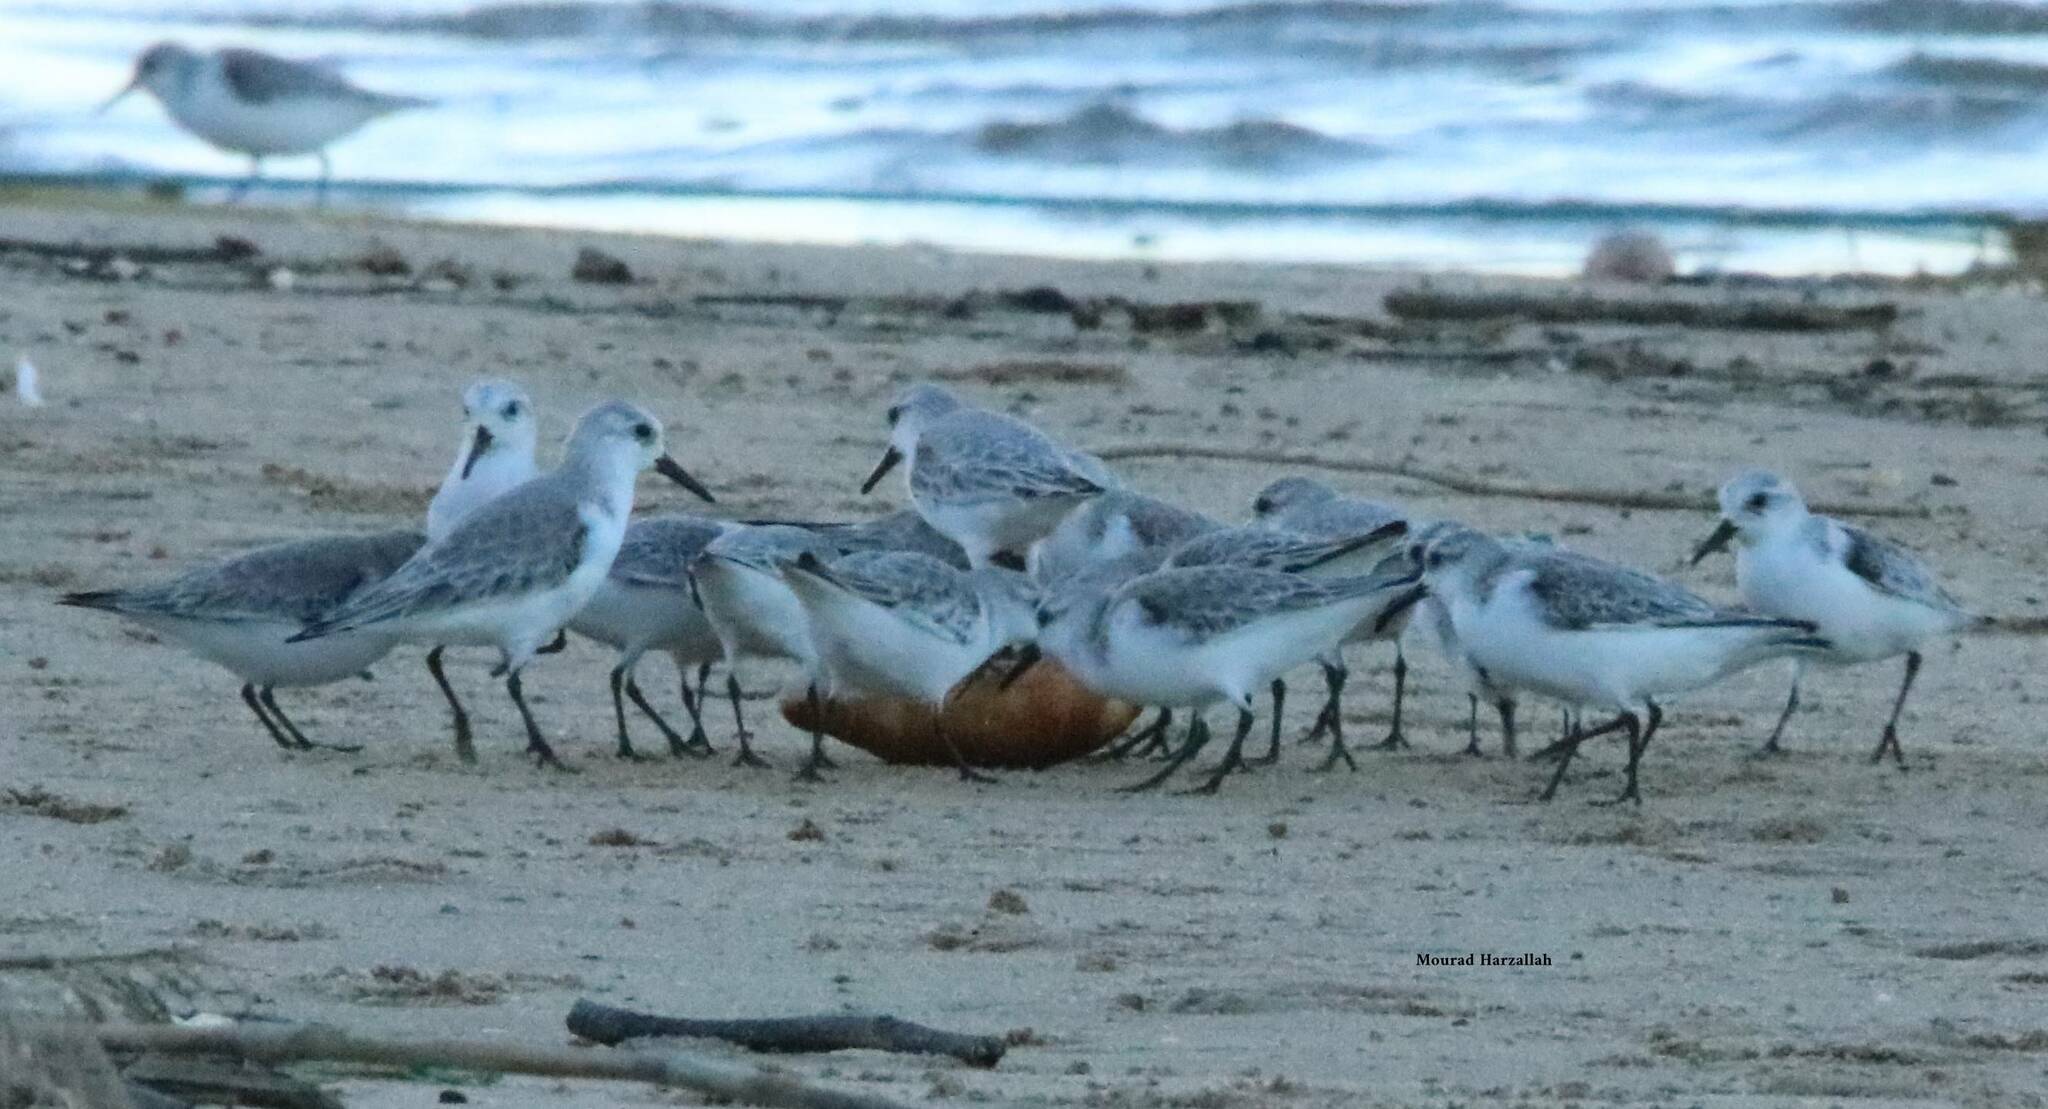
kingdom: Animalia
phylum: Chordata
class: Aves
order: Charadriiformes
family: Scolopacidae
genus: Calidris
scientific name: Calidris alba
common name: Sanderling
